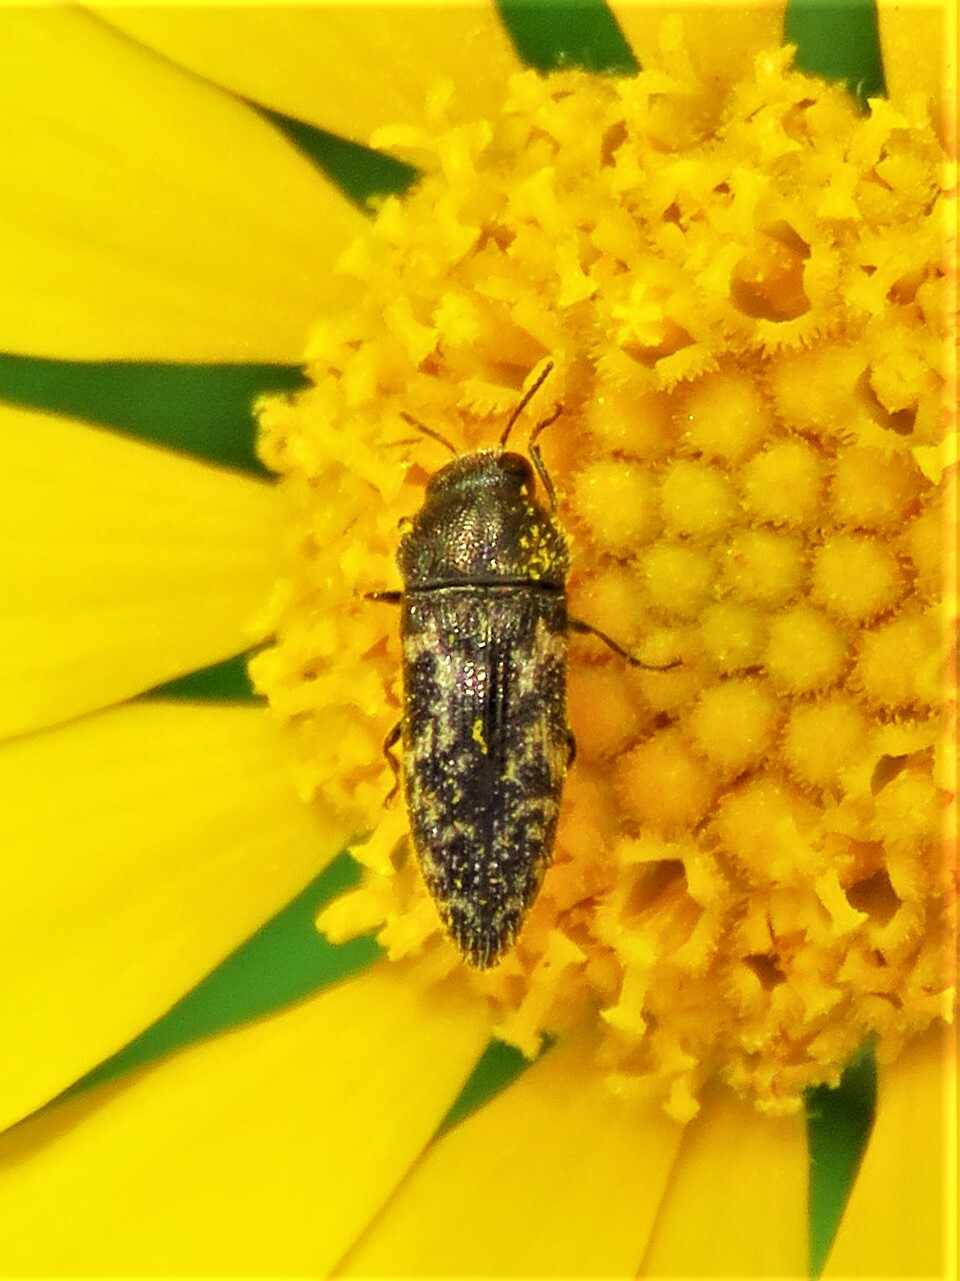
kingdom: Animalia
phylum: Arthropoda
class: Insecta
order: Coleoptera
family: Buprestidae
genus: Acmaeodera
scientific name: Acmaeodera neglecta
